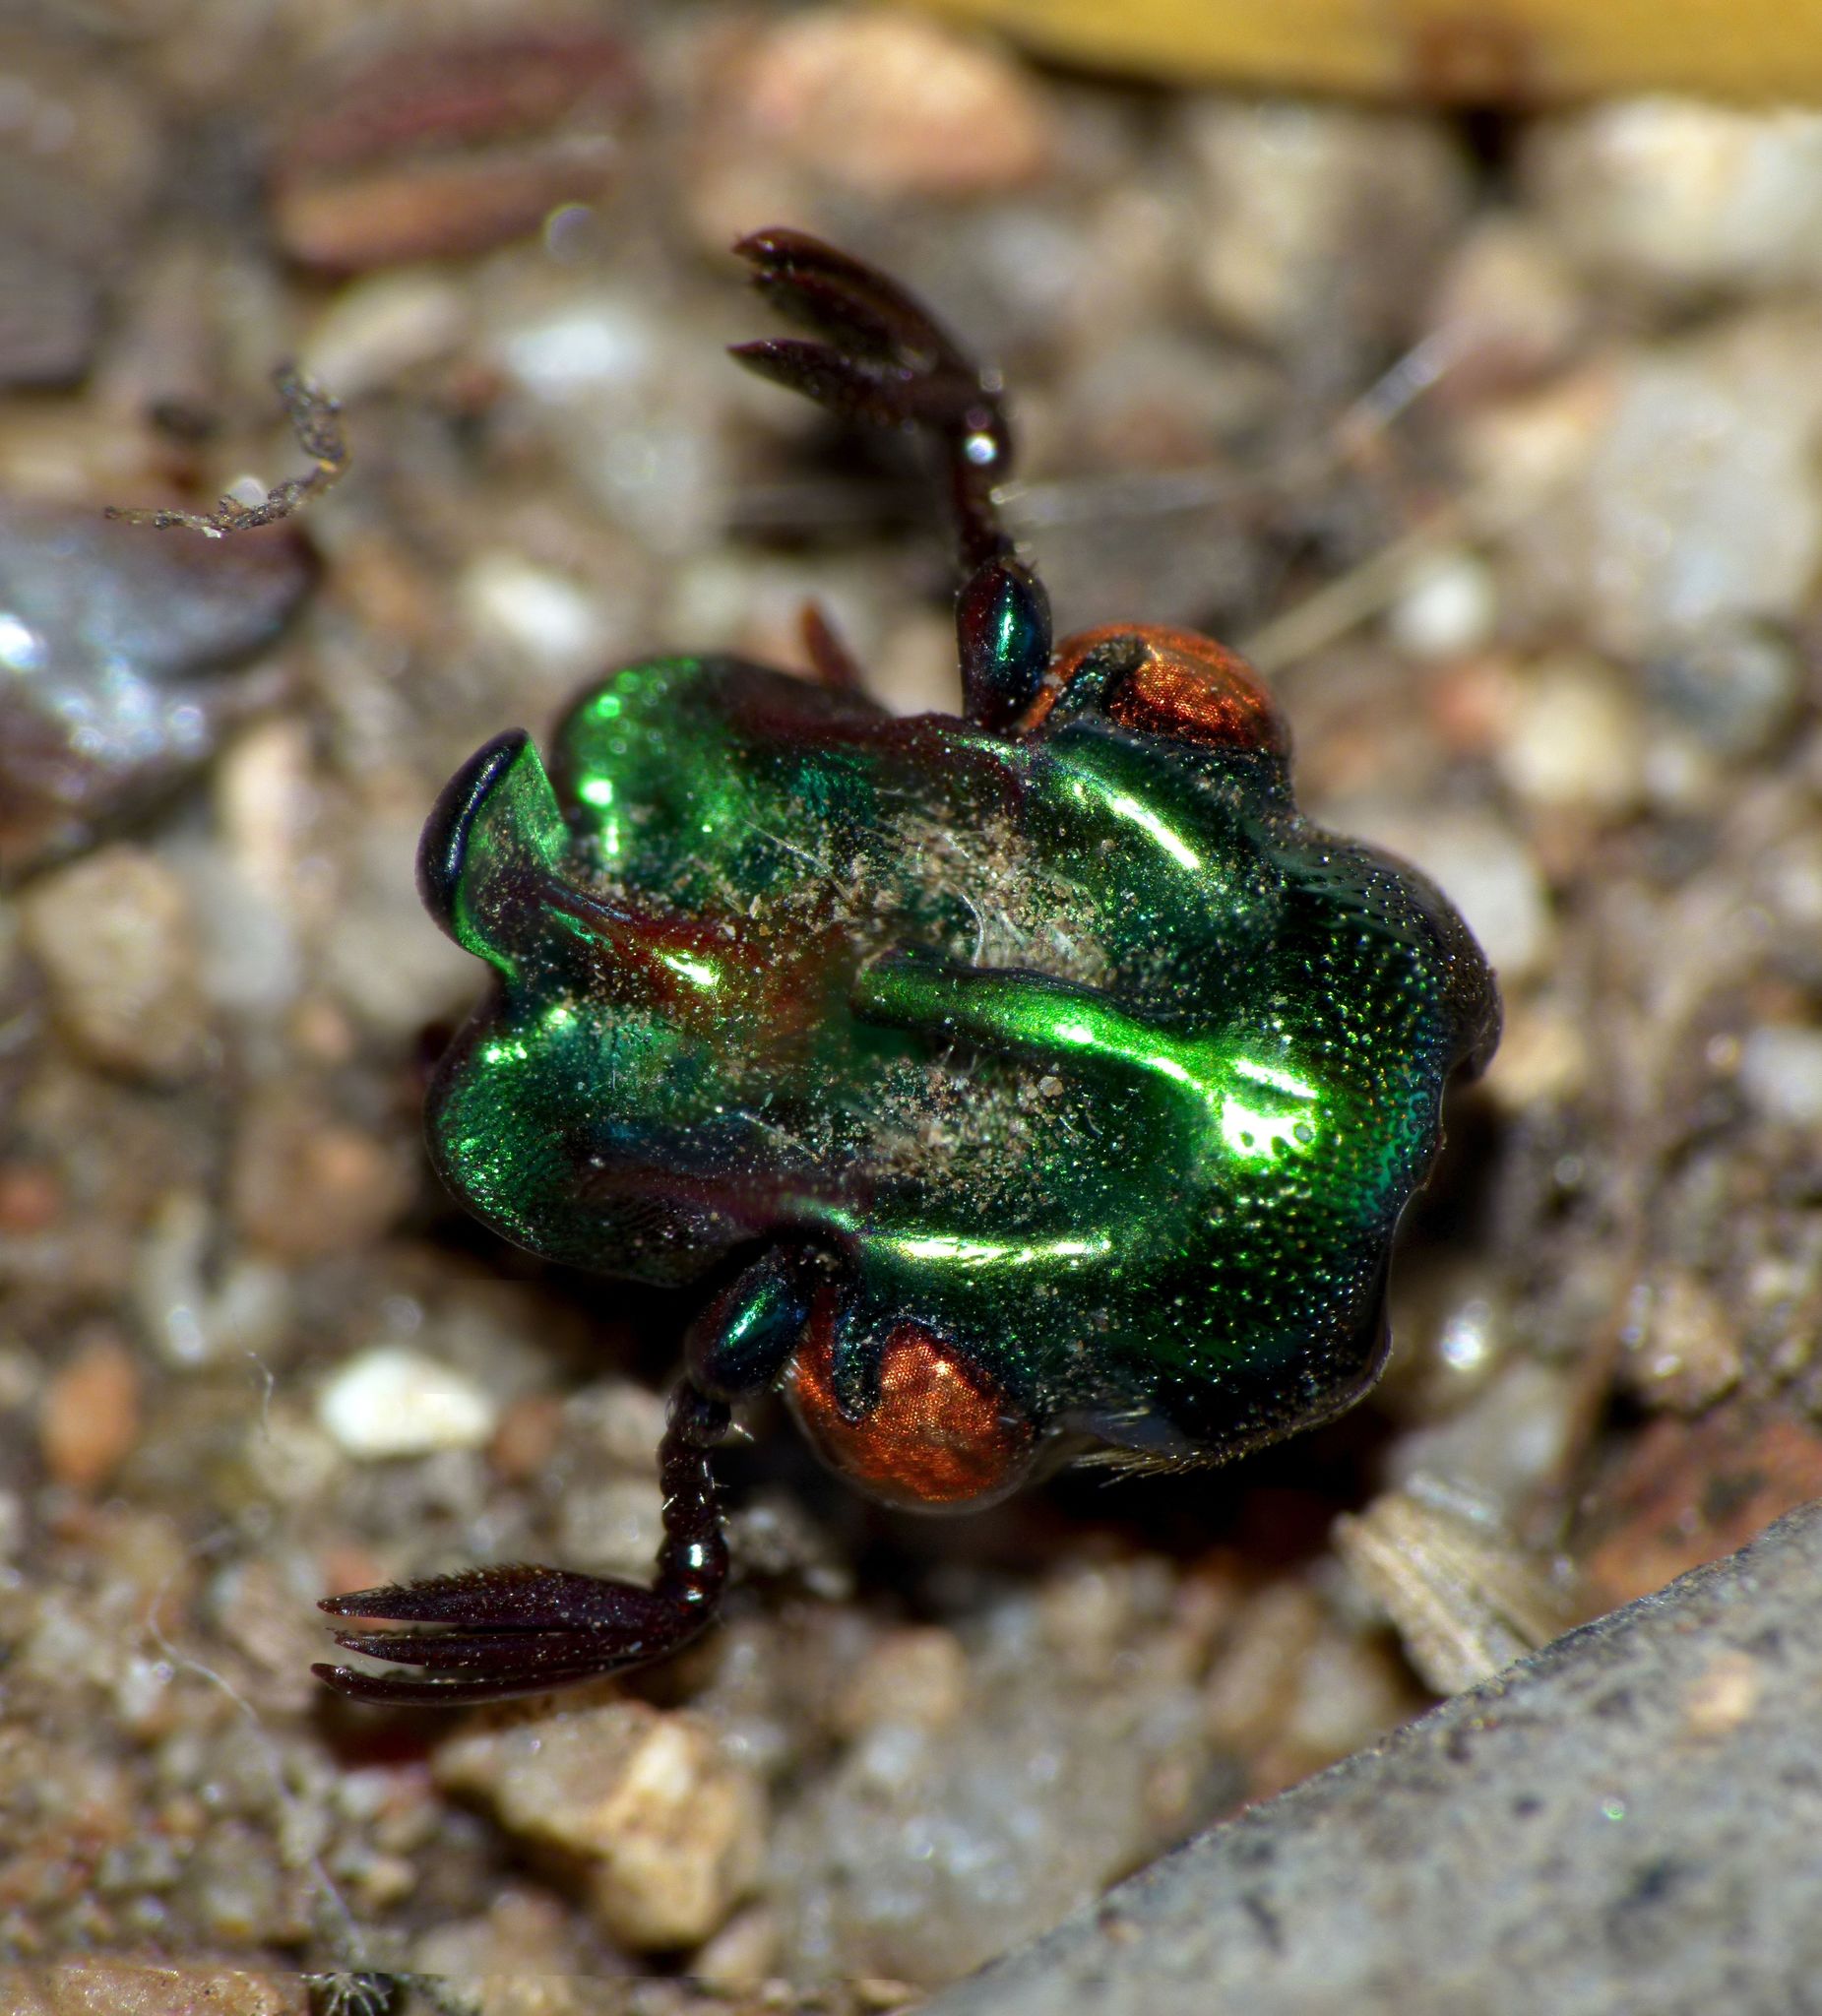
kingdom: Animalia
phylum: Arthropoda
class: Insecta
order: Coleoptera
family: Scarabaeidae
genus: Cotinis
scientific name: Cotinis mutabilis
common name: Figeater beetle
